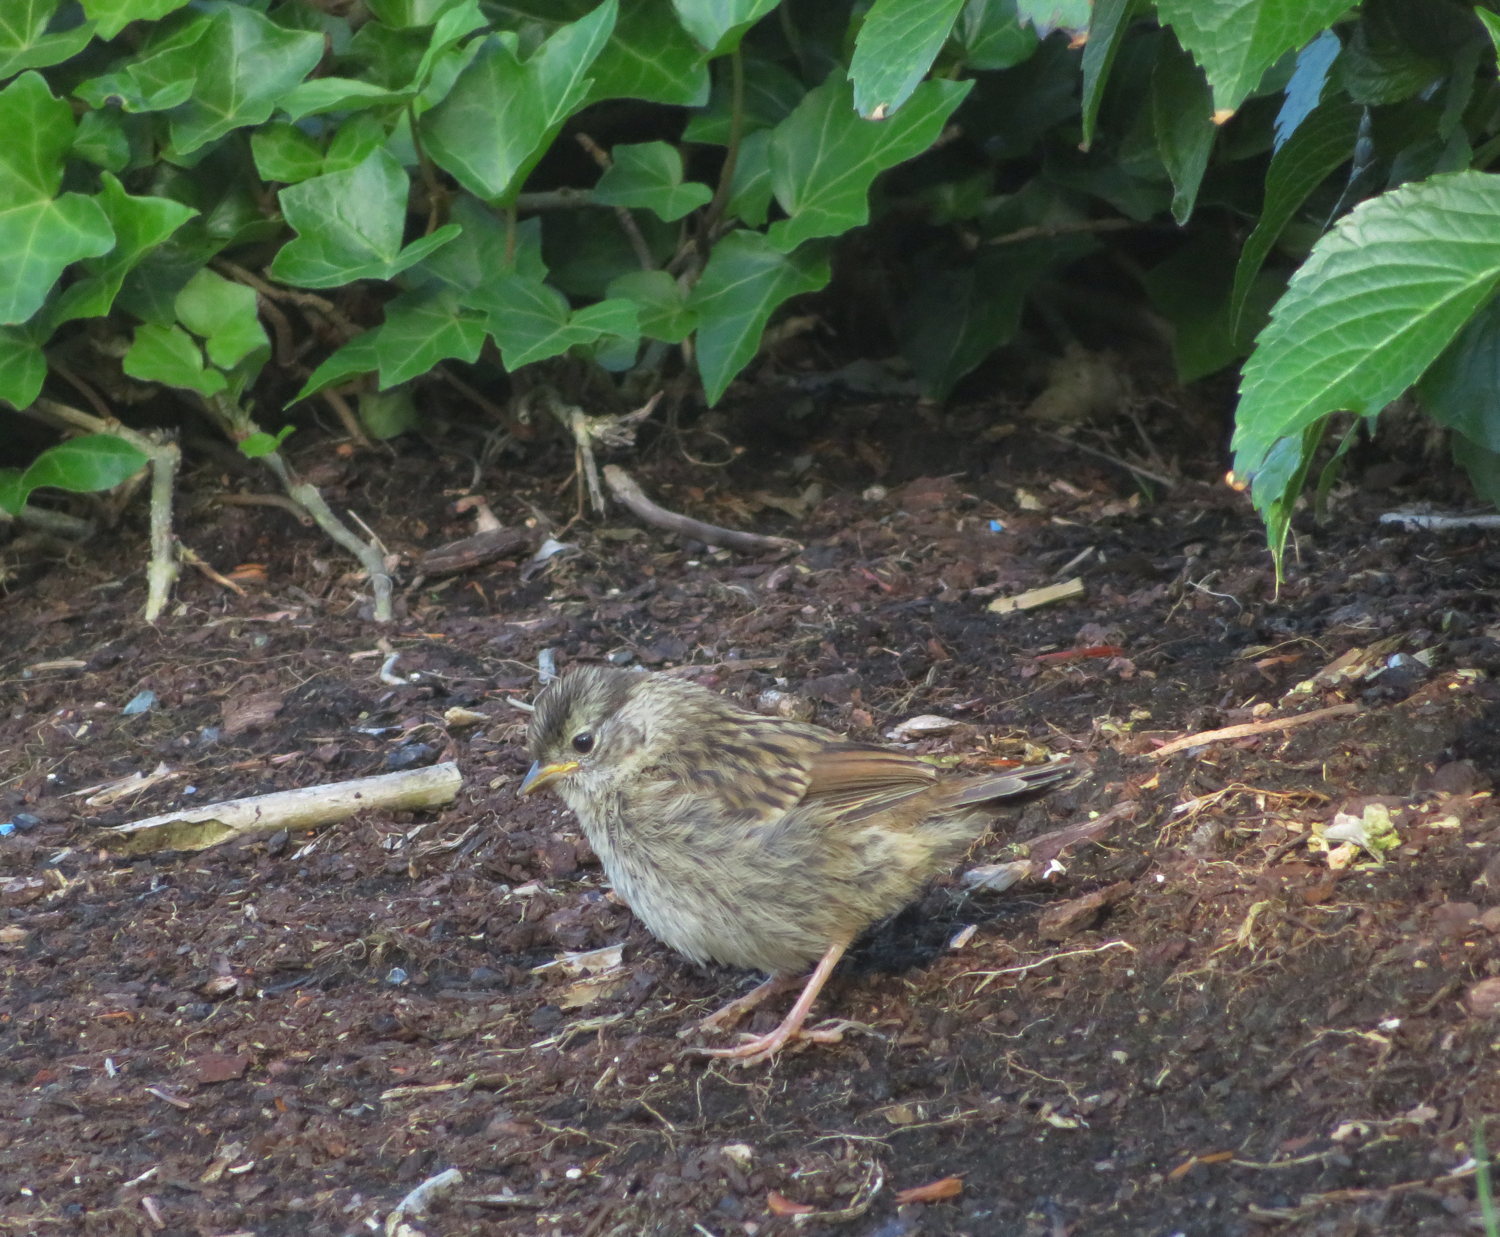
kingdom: Animalia
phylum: Chordata
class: Aves
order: Passeriformes
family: Passerellidae
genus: Zonotrichia
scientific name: Zonotrichia leucophrys
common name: White-crowned sparrow
